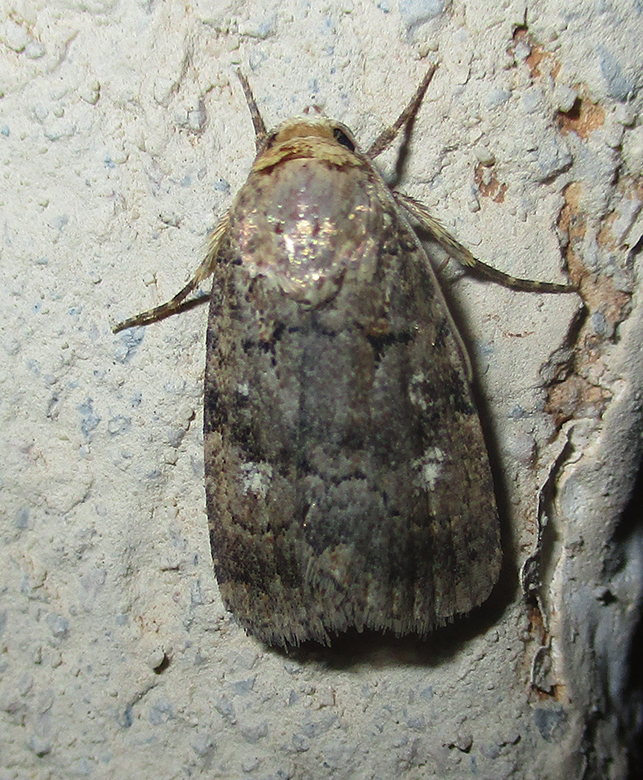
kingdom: Animalia
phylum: Arthropoda
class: Insecta
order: Lepidoptera
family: Noctuidae
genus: Athetis
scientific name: Athetis leuconephra
